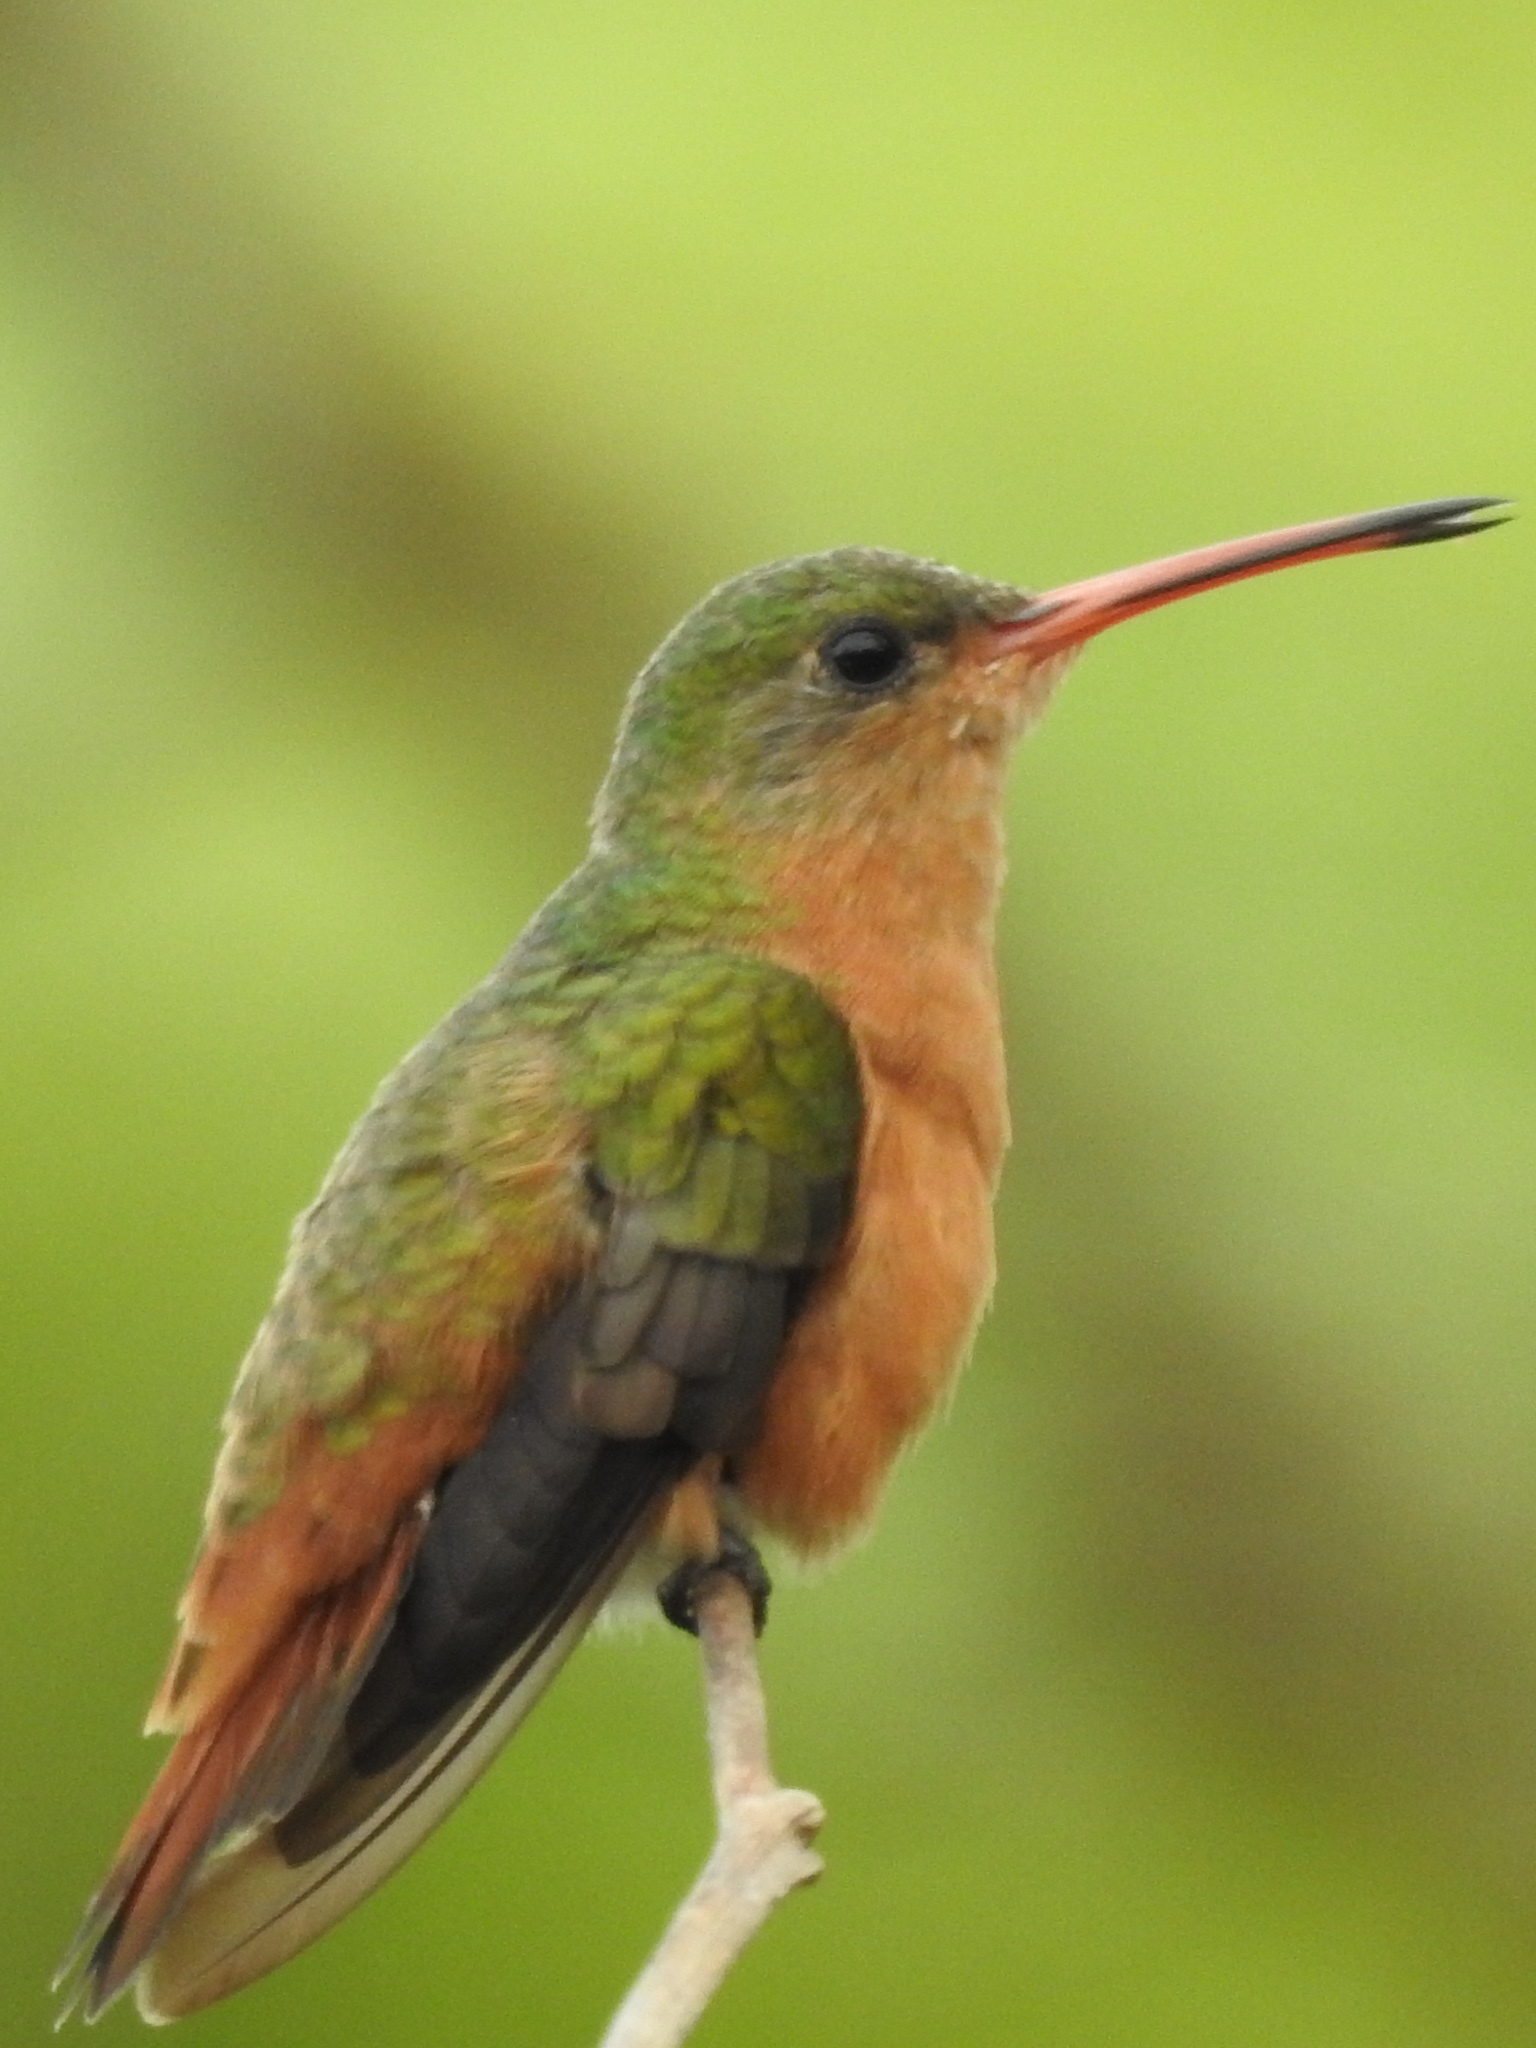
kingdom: Animalia
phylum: Chordata
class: Aves
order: Apodiformes
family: Trochilidae
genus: Amazilia
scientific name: Amazilia rutila
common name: Cinnamon hummingbird
